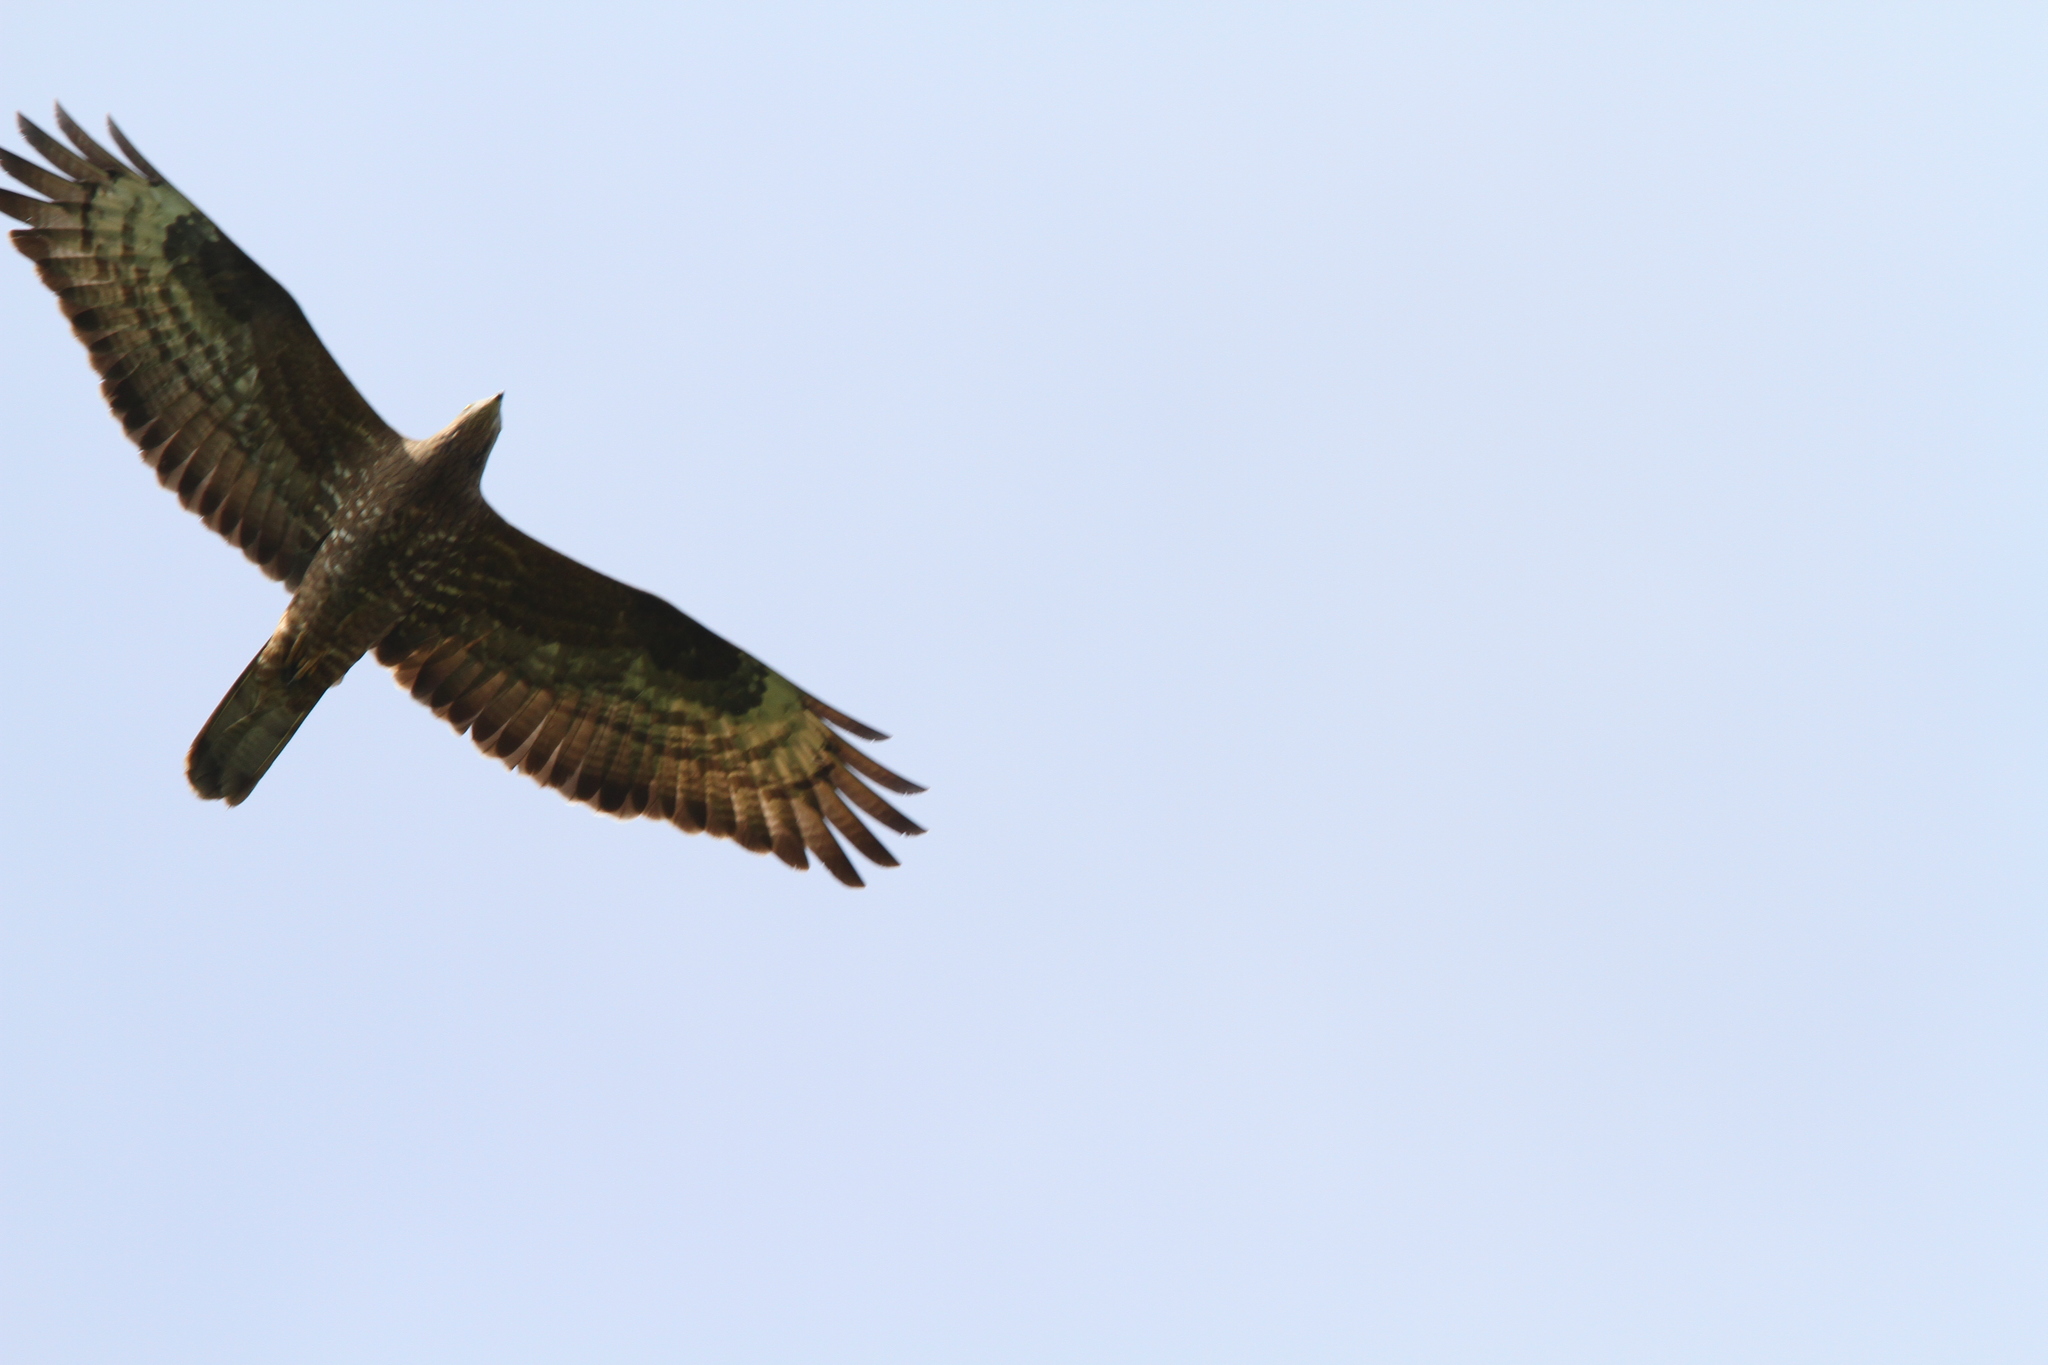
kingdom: Animalia
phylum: Chordata
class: Aves
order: Accipitriformes
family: Accipitridae
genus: Pernis
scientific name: Pernis apivorus
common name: European honey buzzard
